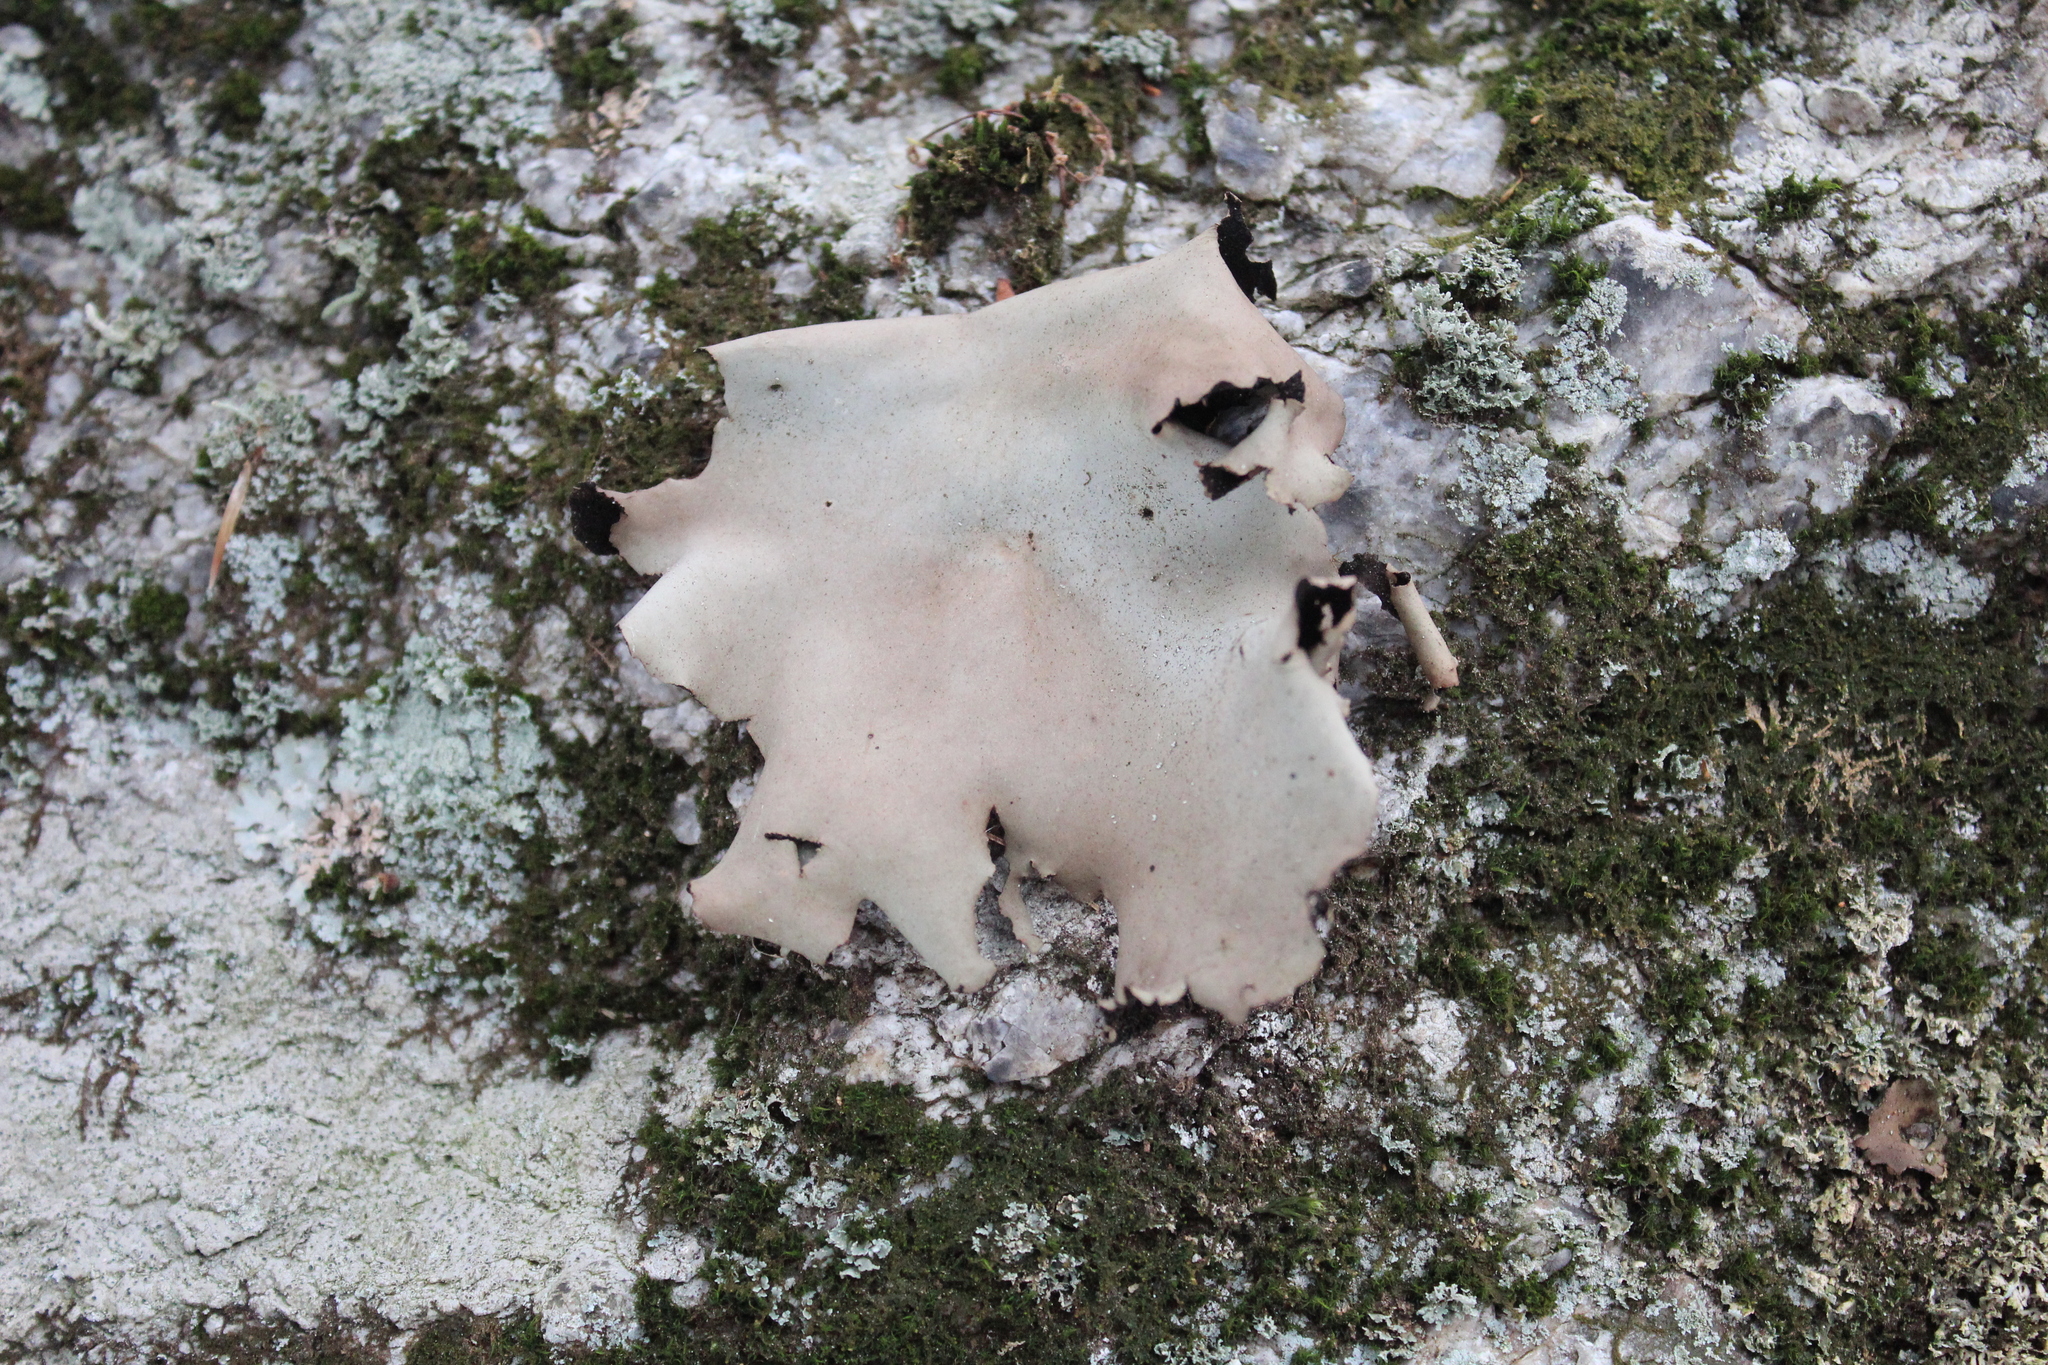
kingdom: Fungi
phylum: Ascomycota
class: Lecanoromycetes
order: Umbilicariales
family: Umbilicariaceae
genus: Umbilicaria
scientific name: Umbilicaria mammulata
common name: Smooth rock tripe
